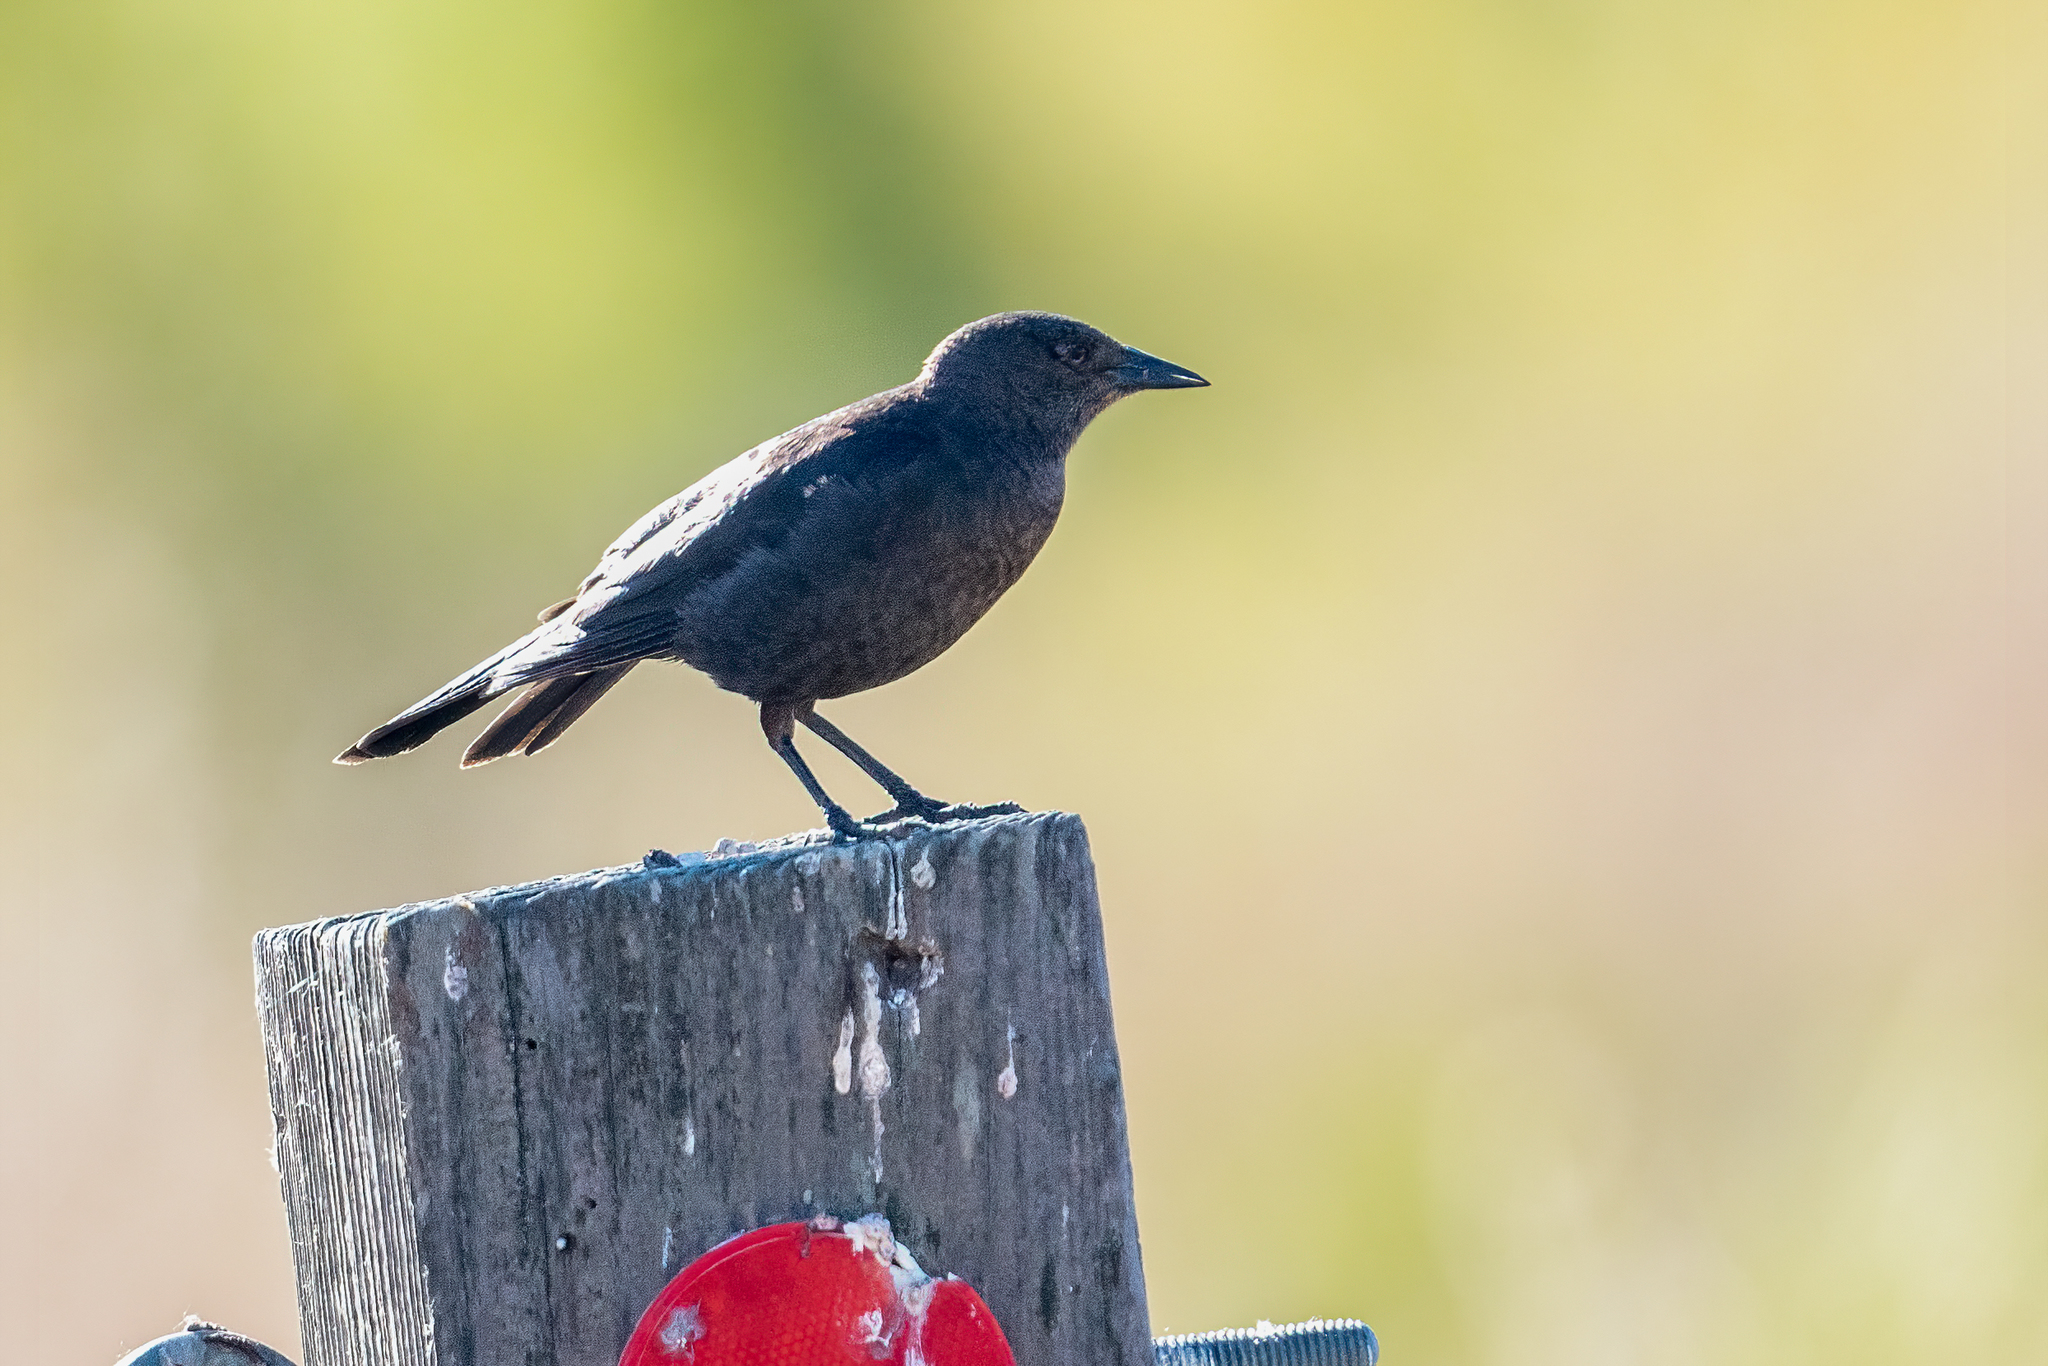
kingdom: Animalia
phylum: Chordata
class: Aves
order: Passeriformes
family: Icteridae
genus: Euphagus
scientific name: Euphagus cyanocephalus
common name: Brewer's blackbird
